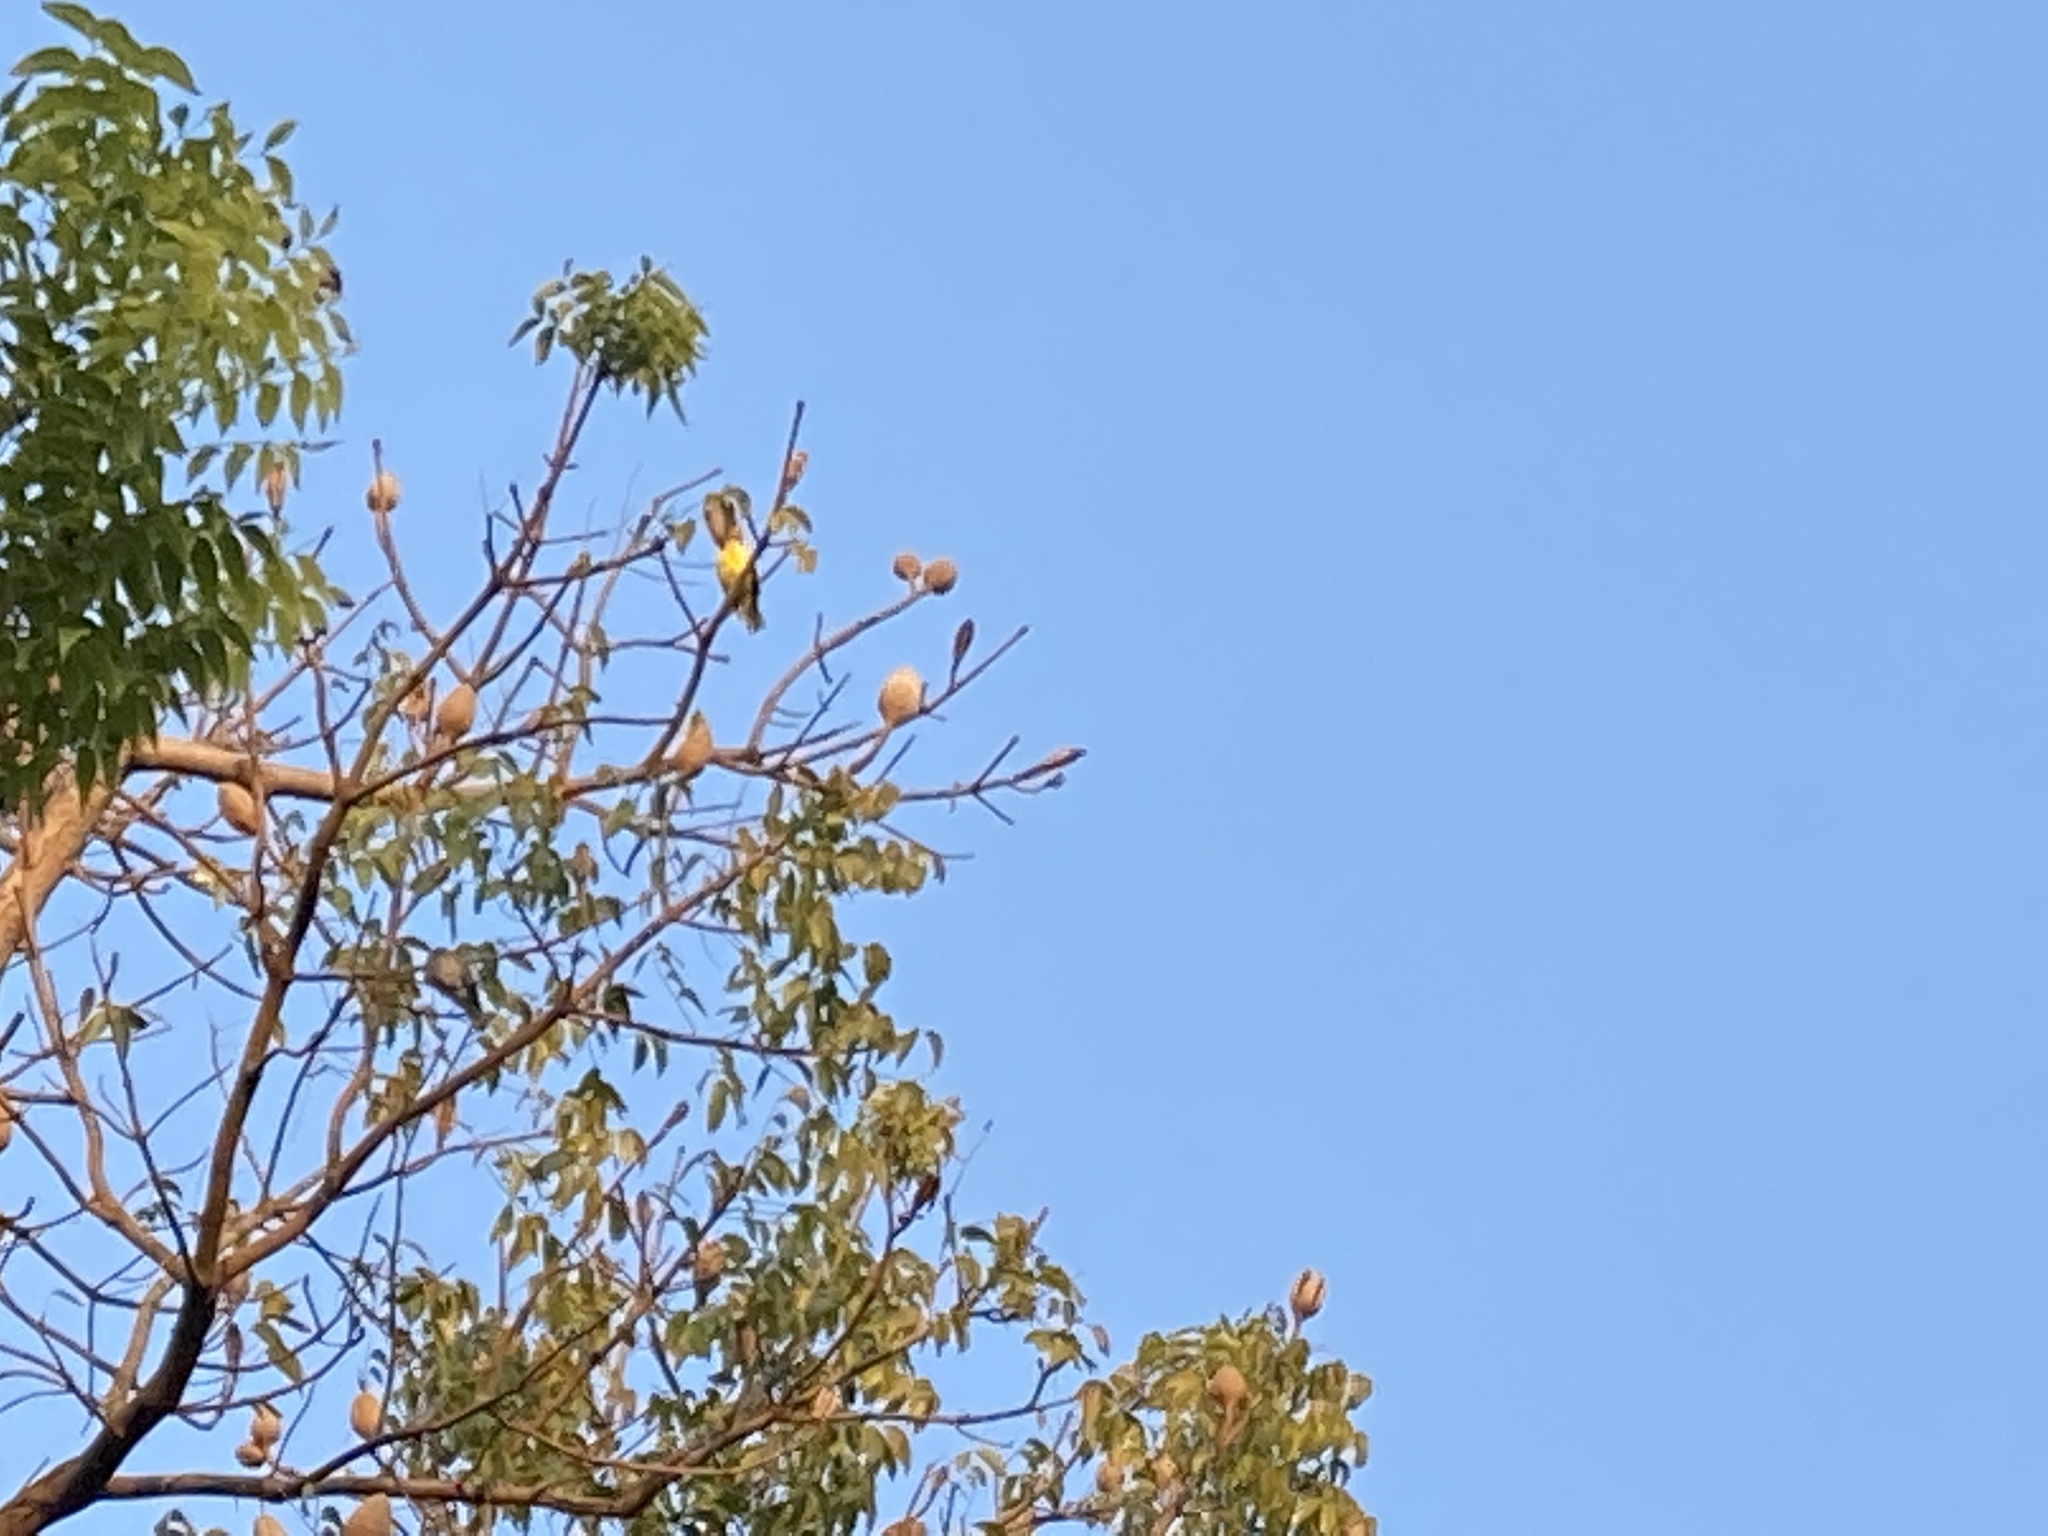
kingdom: Animalia
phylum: Chordata
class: Aves
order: Passeriformes
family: Oriolidae
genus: Oriolus
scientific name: Oriolus chinensis
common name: Black-naped oriole
